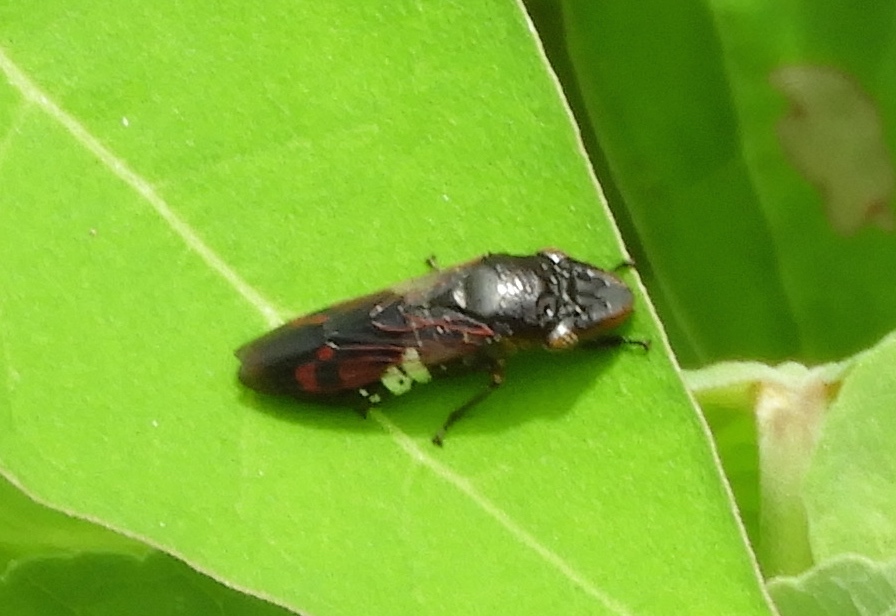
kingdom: Animalia
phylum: Arthropoda
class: Insecta
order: Hemiptera
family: Cicadellidae
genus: Homalodisca
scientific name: Homalodisca ichthyocephala
